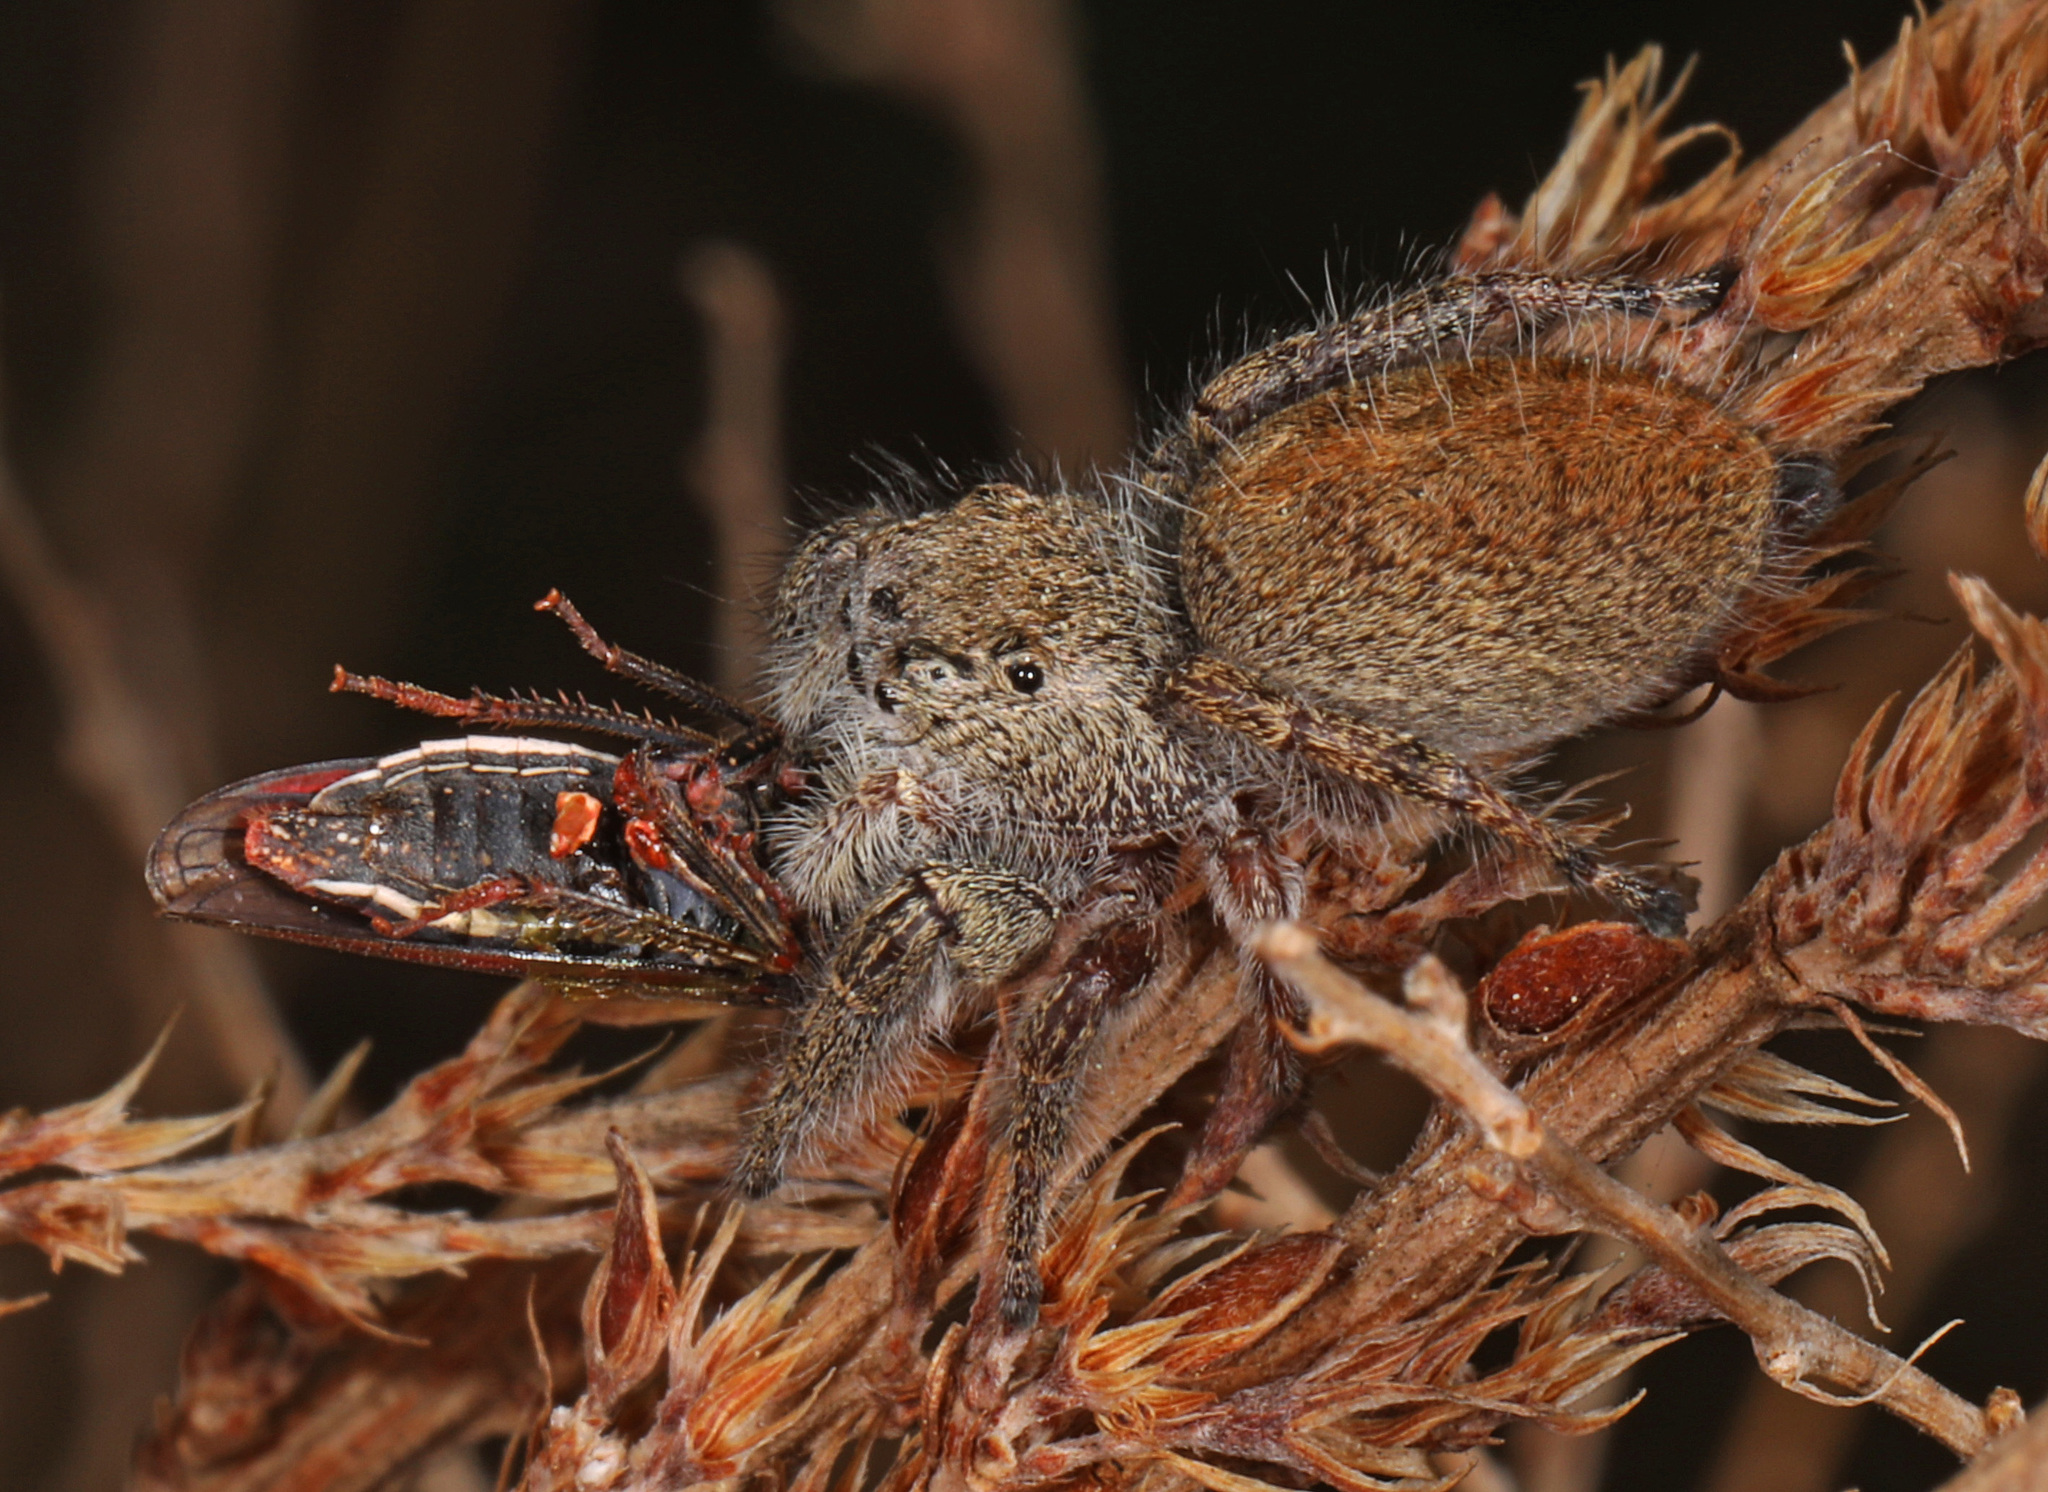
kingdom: Animalia
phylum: Arthropoda
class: Arachnida
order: Araneae
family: Salticidae
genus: Phidippus
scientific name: Phidippus princeps
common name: Grayish jumping spider
